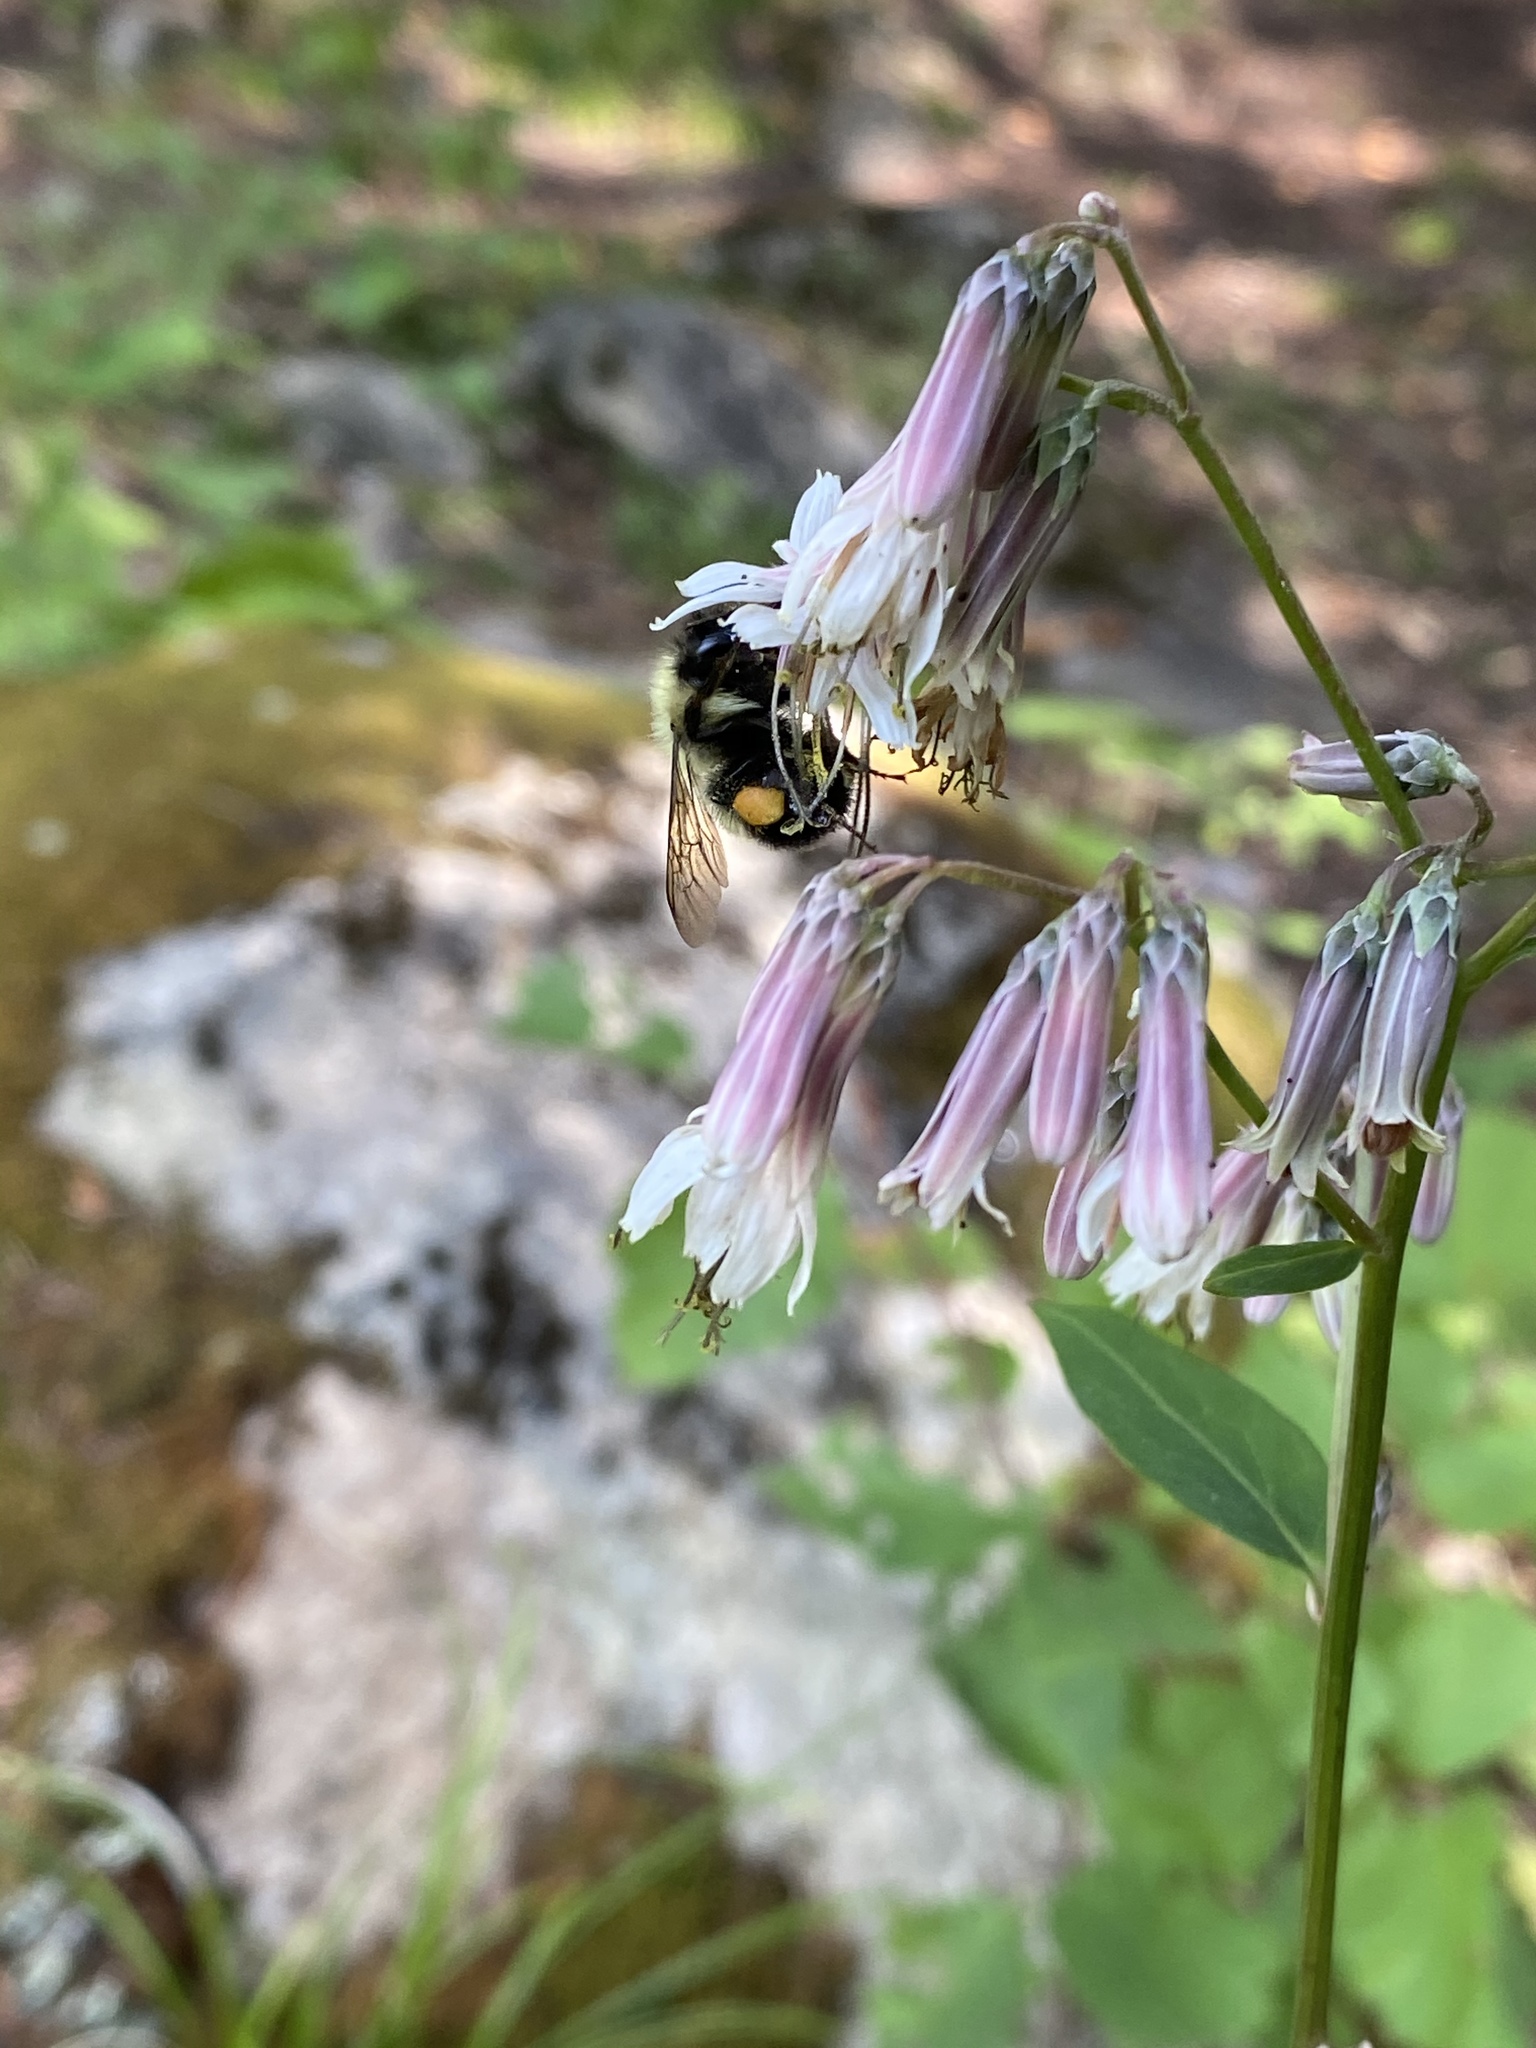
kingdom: Plantae
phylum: Tracheophyta
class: Magnoliopsida
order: Asterales
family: Asteraceae
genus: Nabalus
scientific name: Nabalus albus
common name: White rattlesnakeroot
